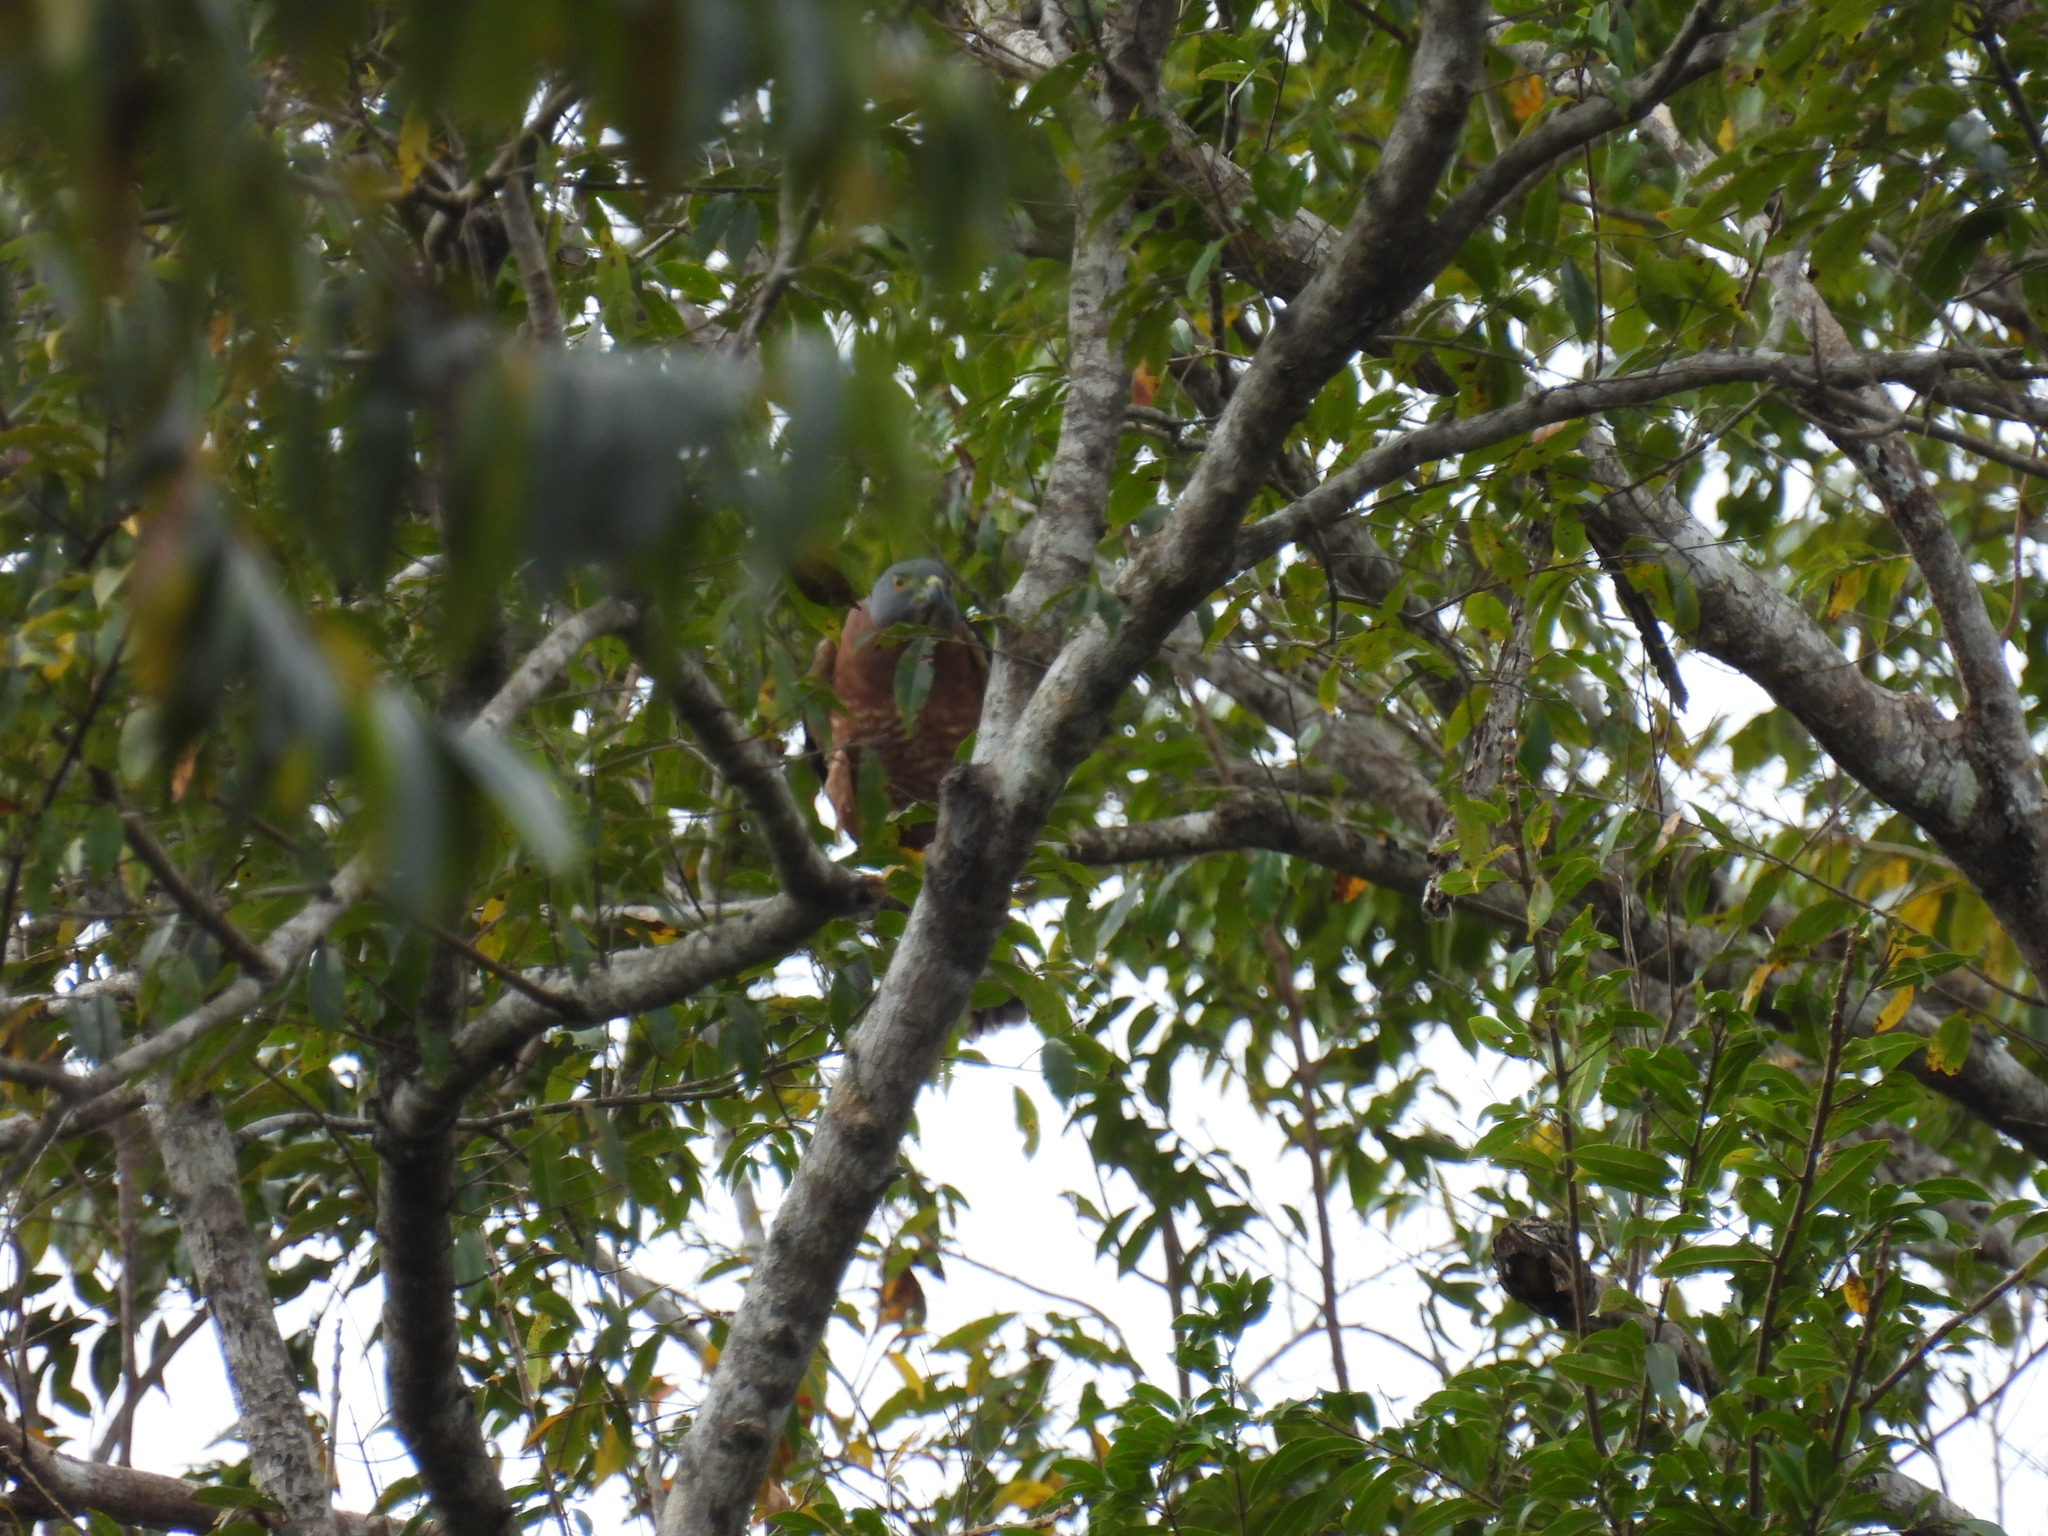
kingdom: Animalia
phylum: Chordata
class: Aves
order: Accipitriformes
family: Accipitridae
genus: Harpagus
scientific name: Harpagus bidentatus
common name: Double-toothed kite
